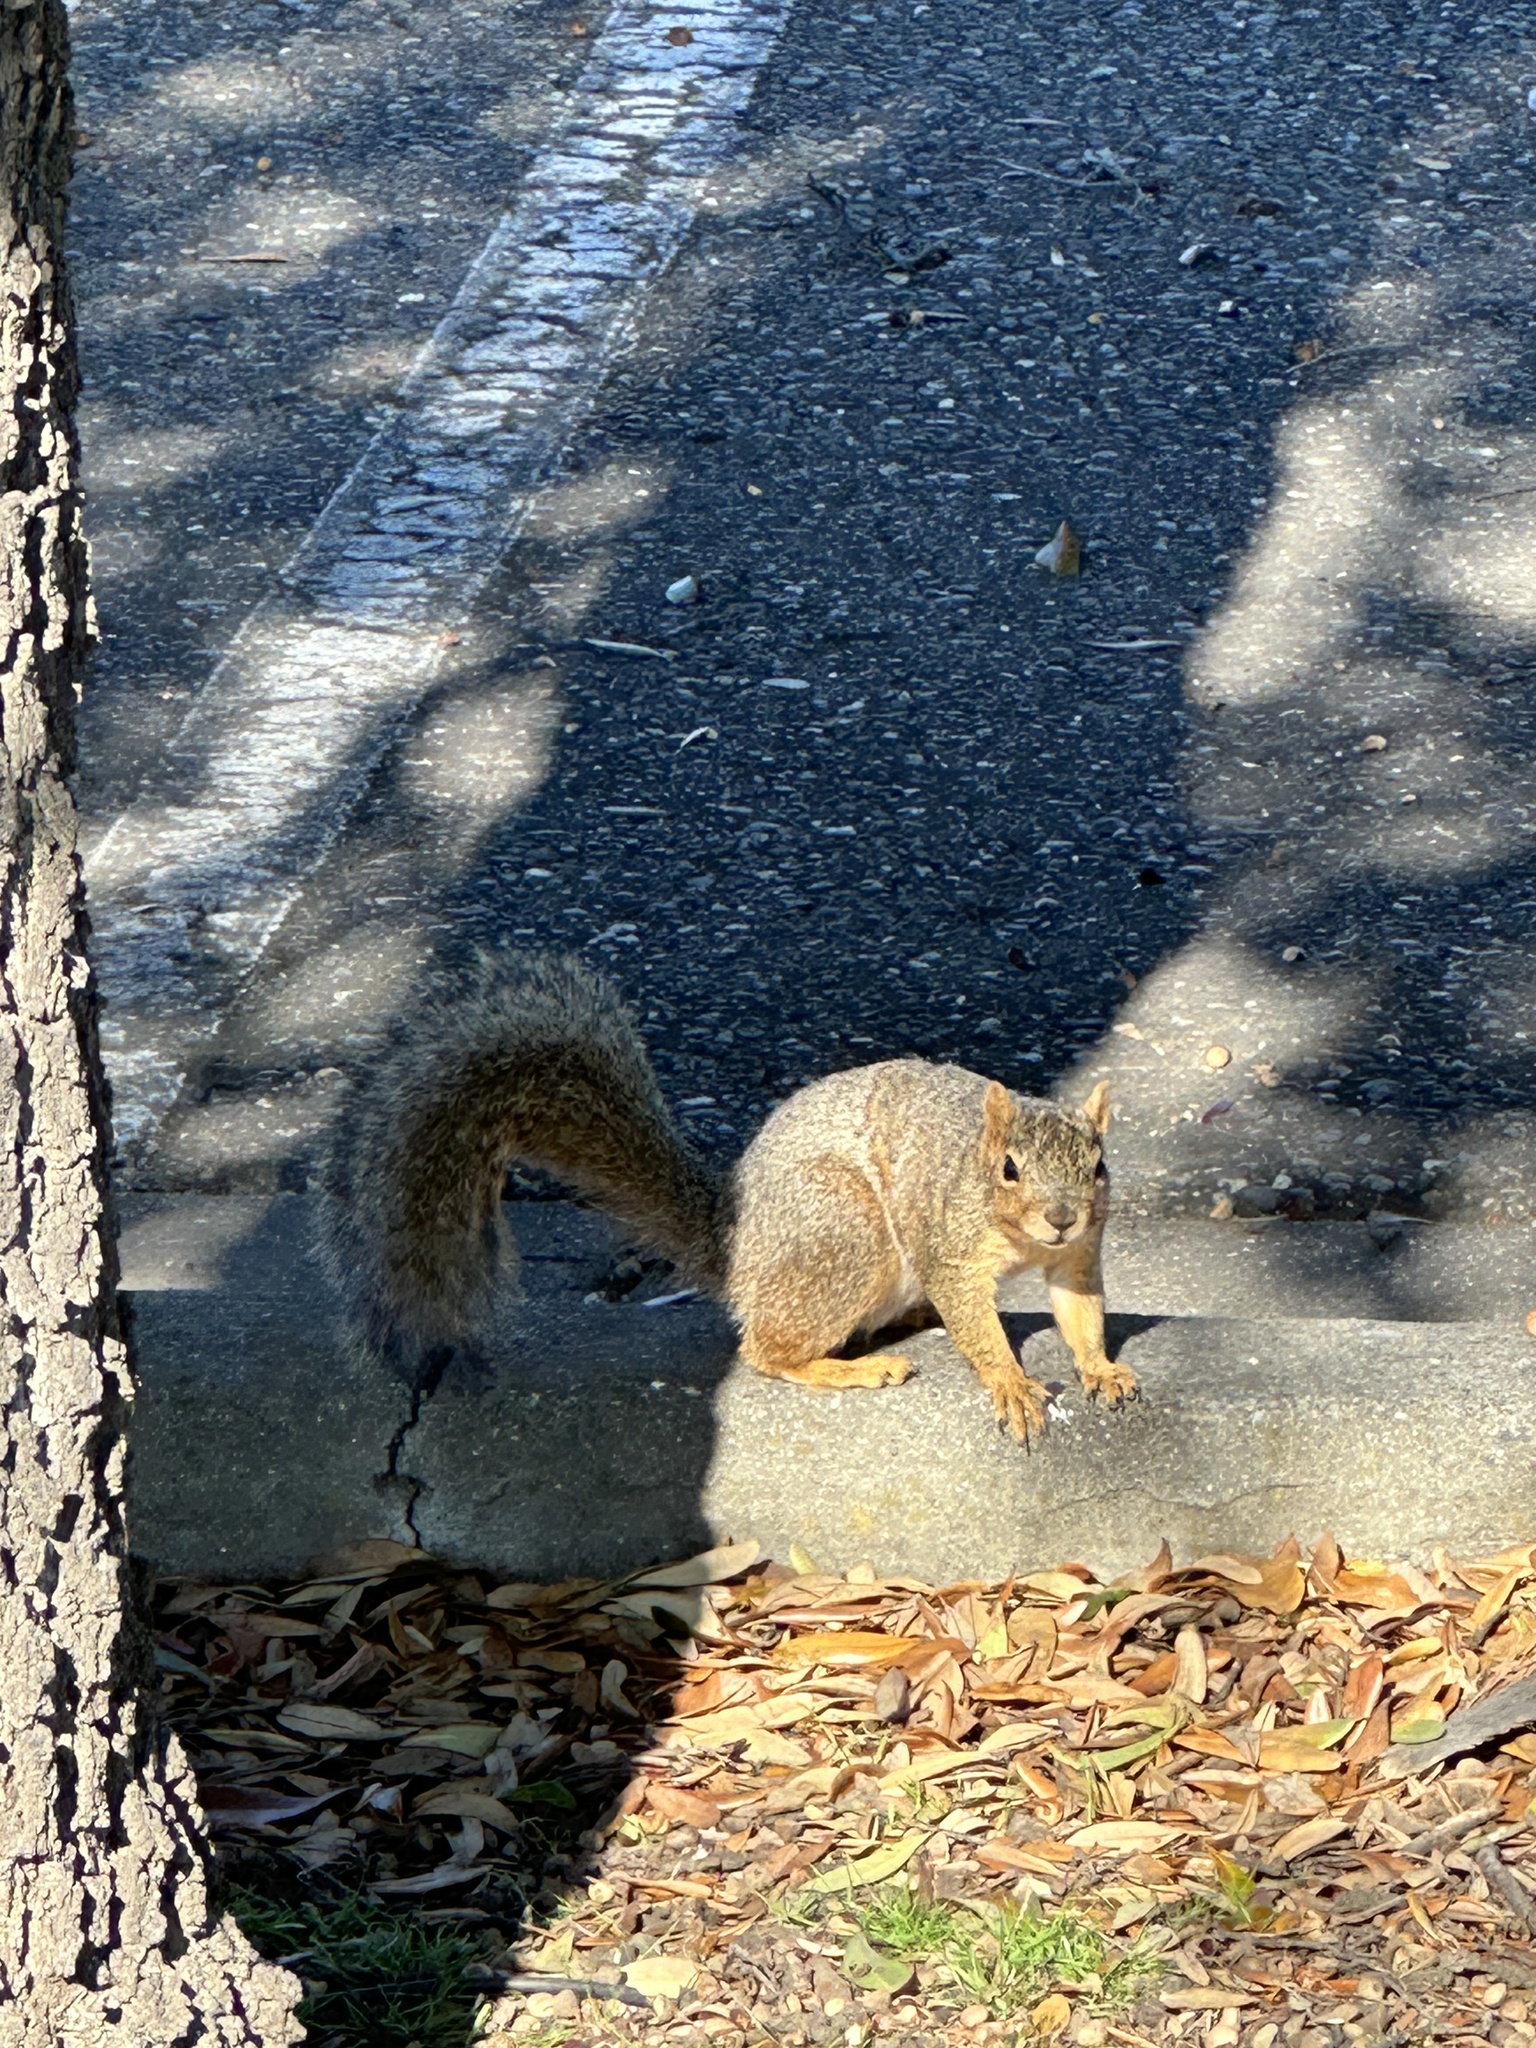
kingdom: Animalia
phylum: Chordata
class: Mammalia
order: Rodentia
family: Sciuridae
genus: Sciurus
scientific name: Sciurus niger
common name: Fox squirrel
